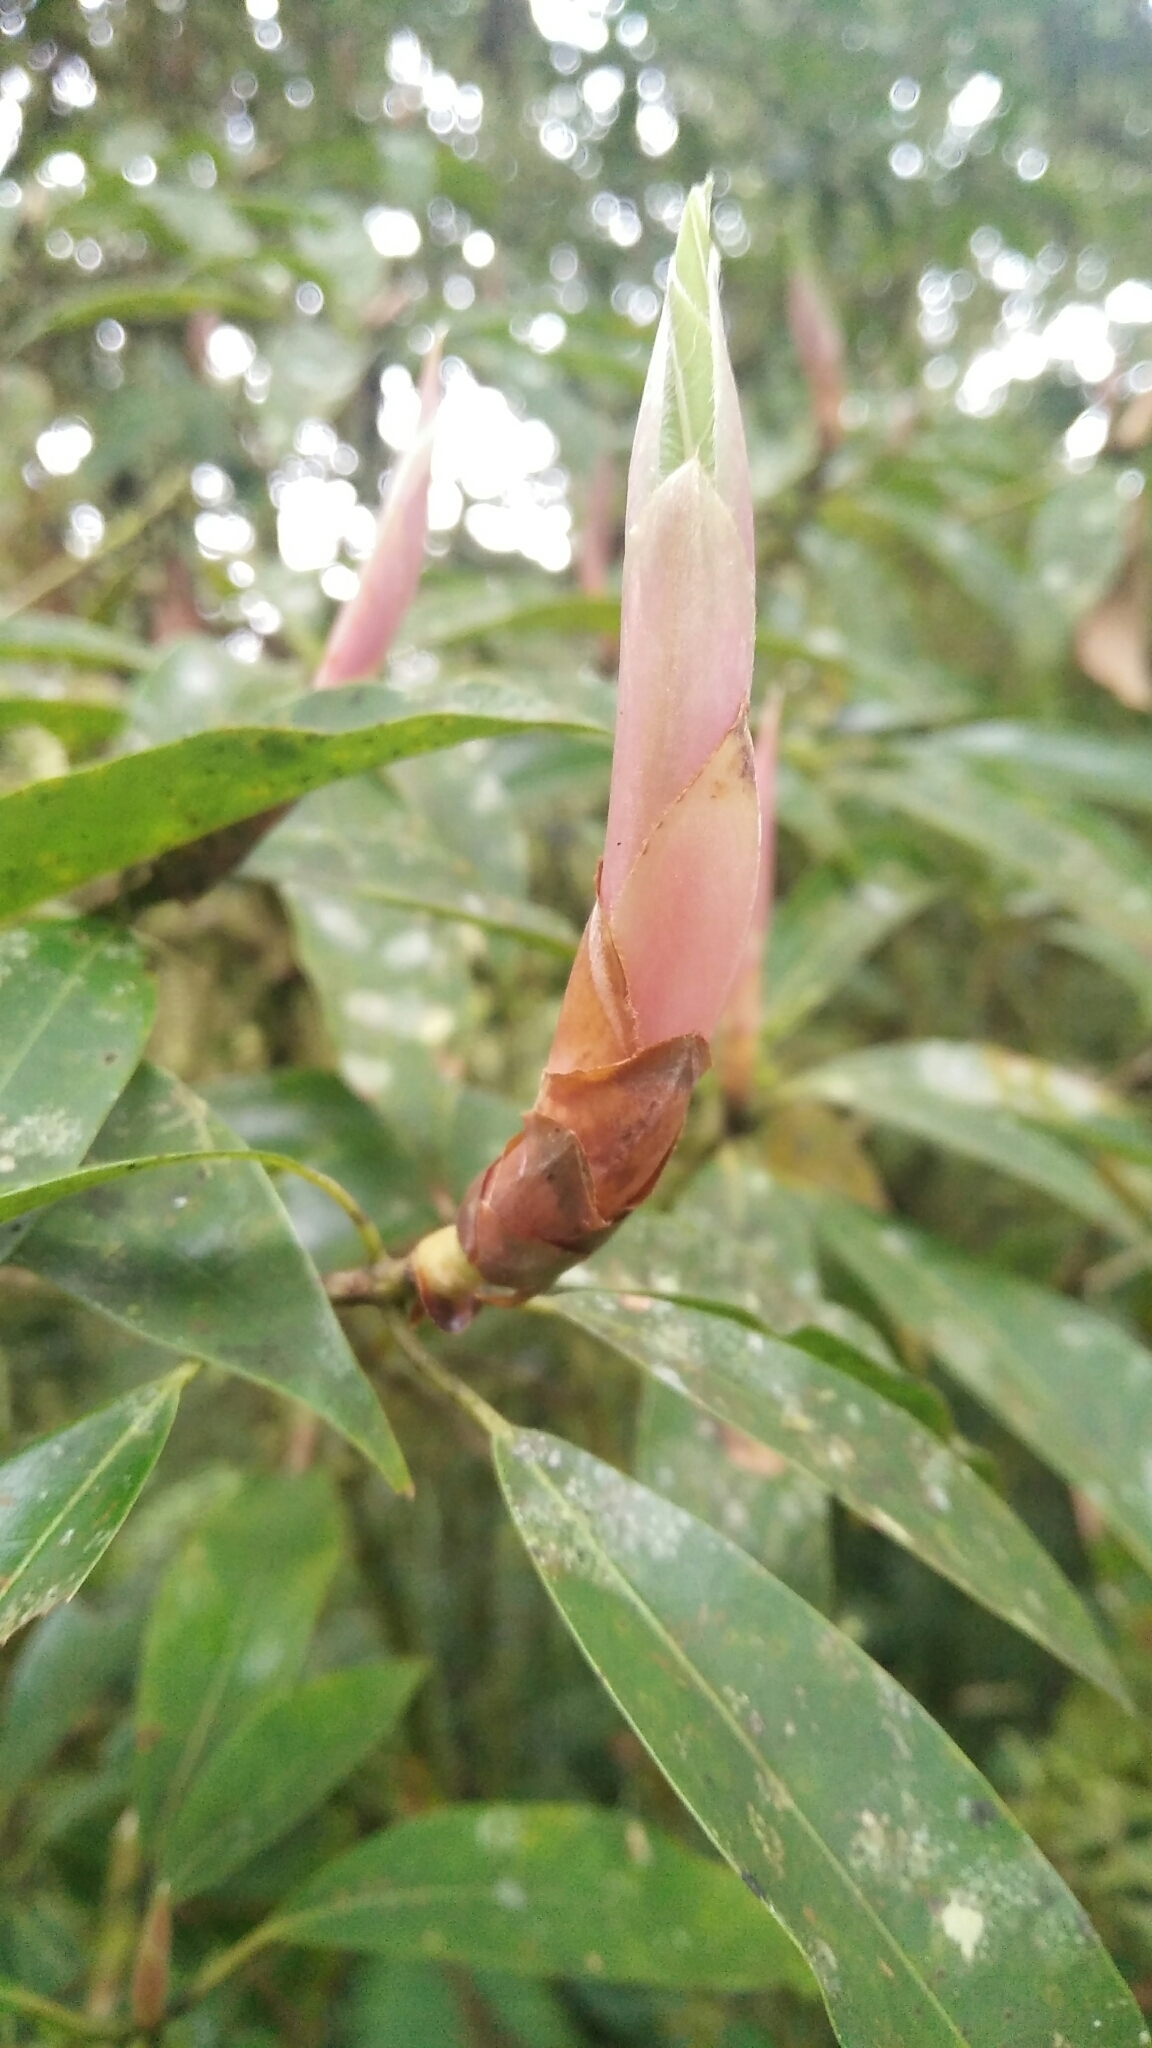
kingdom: Plantae
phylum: Tracheophyta
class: Magnoliopsida
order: Laurales
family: Lauraceae
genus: Machilus
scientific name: Machilus japonica
